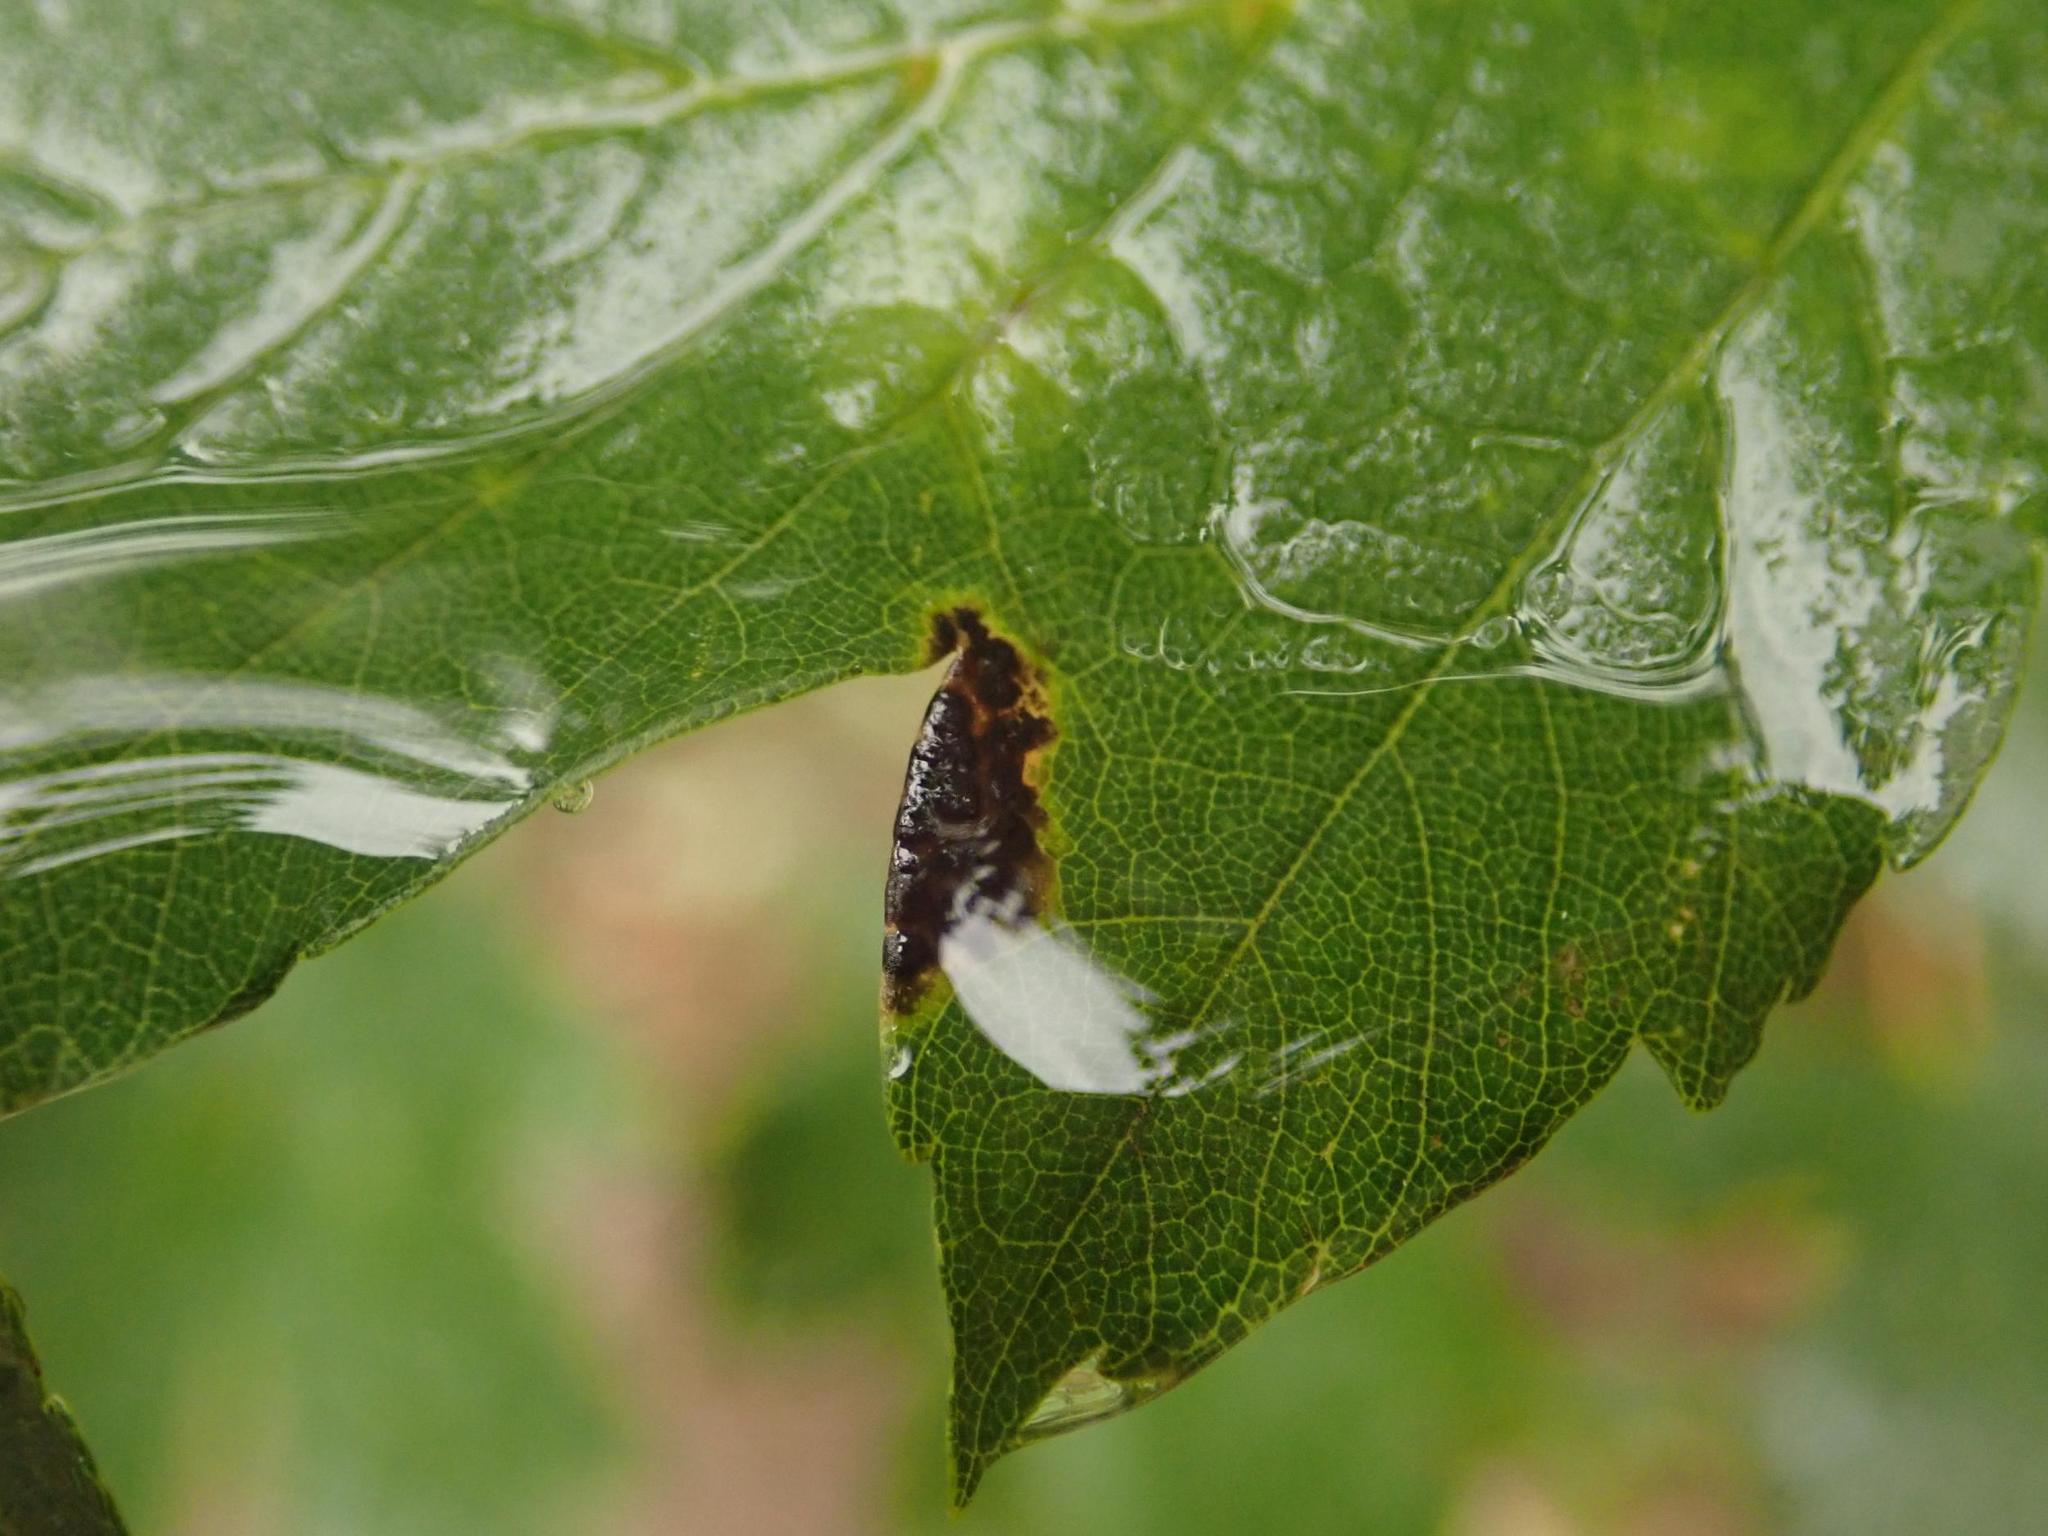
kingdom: Fungi
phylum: Ascomycota
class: Leotiomycetes
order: Rhytismatales
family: Rhytismataceae
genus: Rhytisma
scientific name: Rhytisma acerinum
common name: European tar spot
